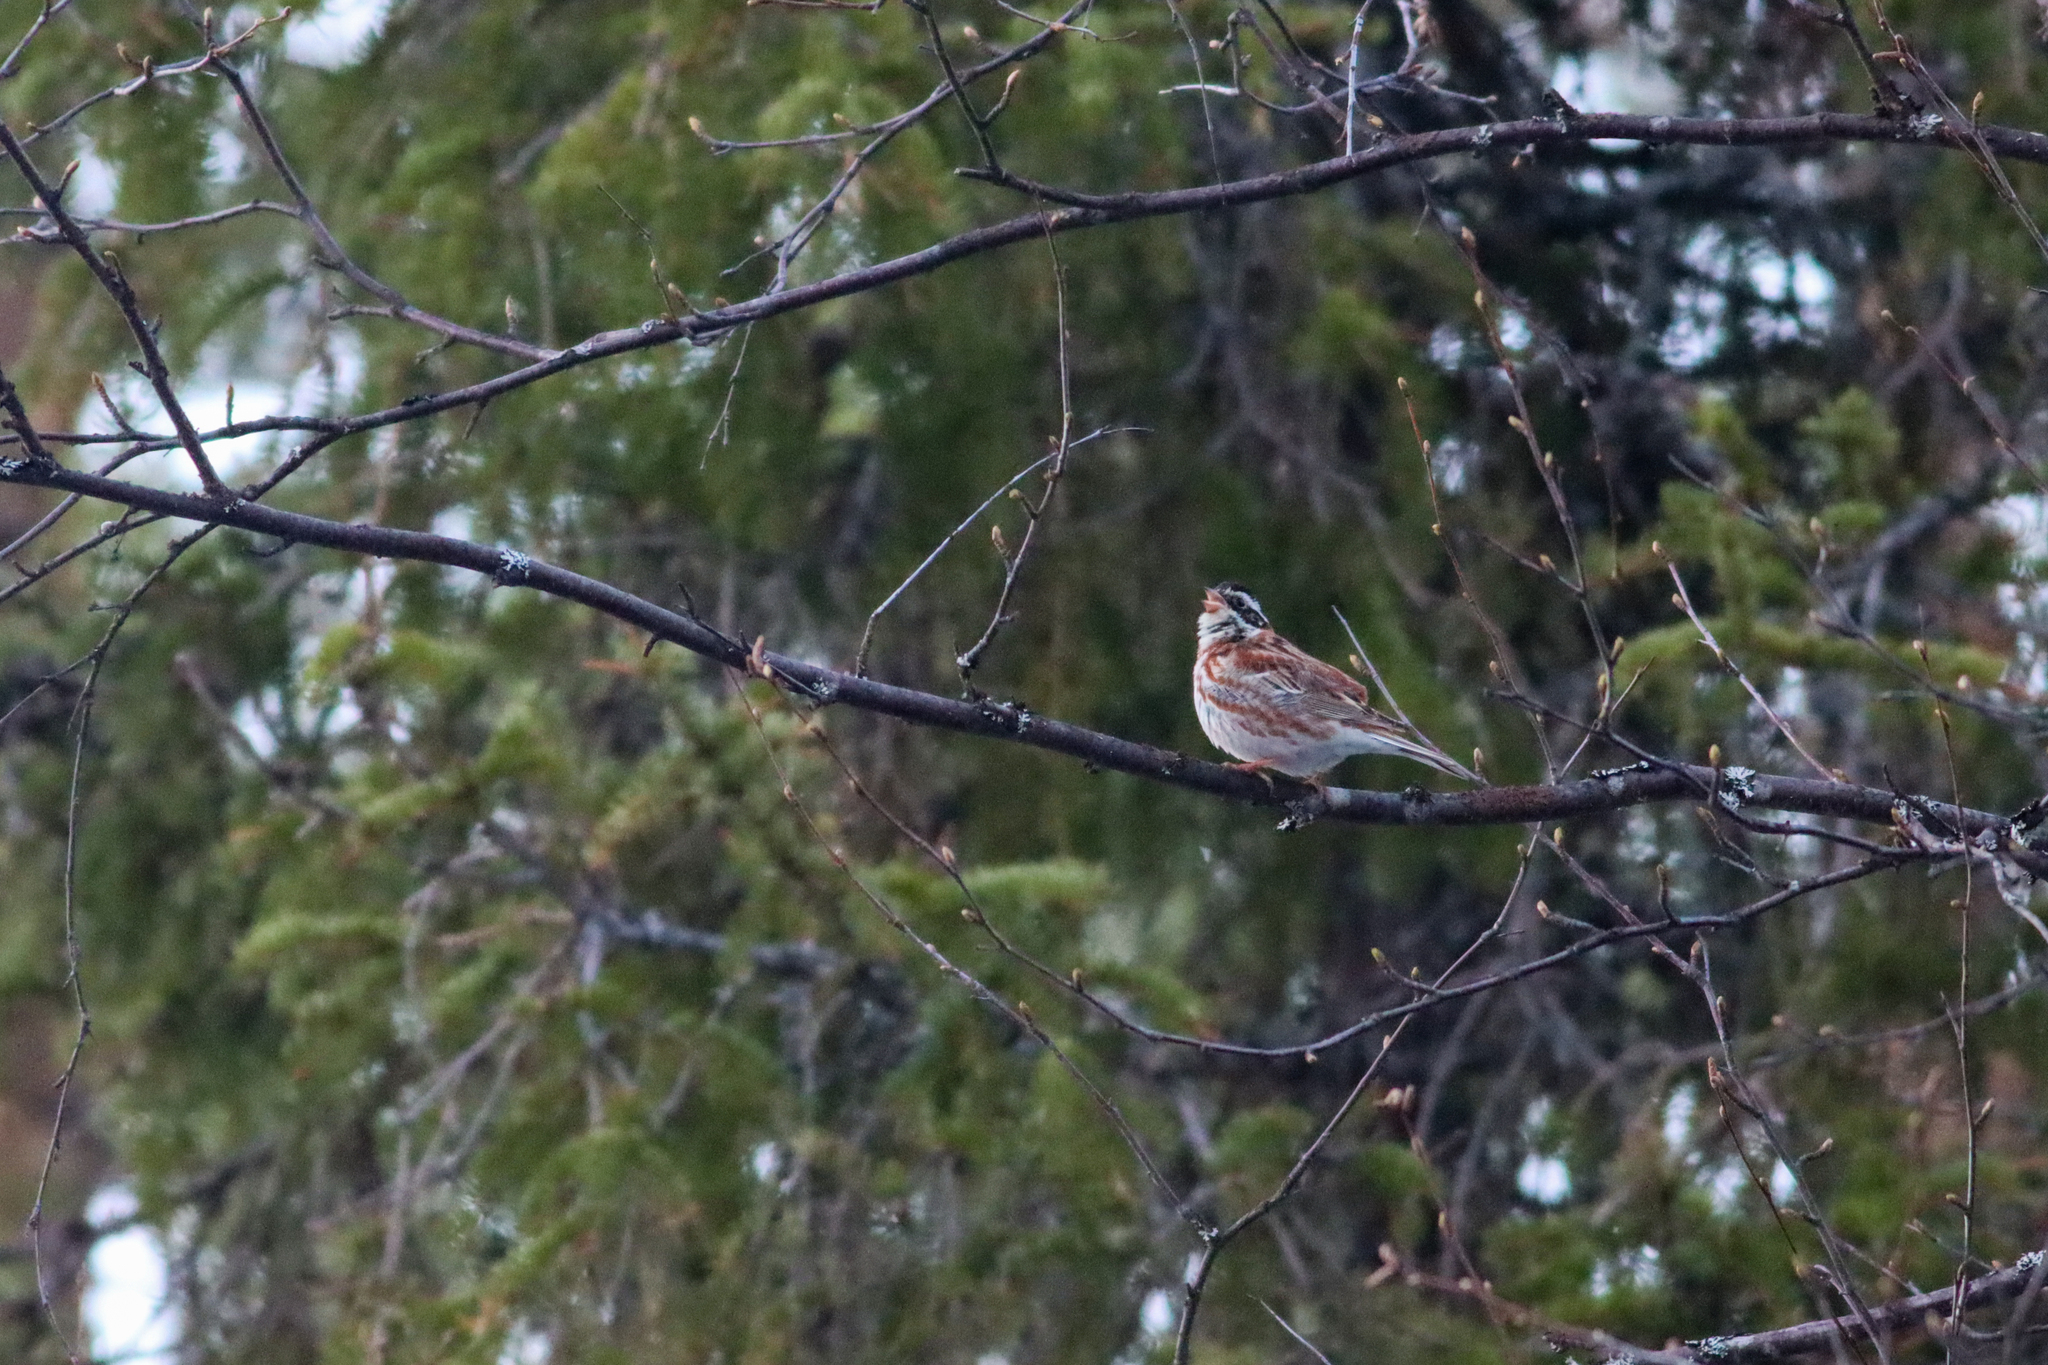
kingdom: Animalia
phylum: Chordata
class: Aves
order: Passeriformes
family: Emberizidae
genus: Emberiza
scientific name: Emberiza rustica
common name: Rustic bunting
